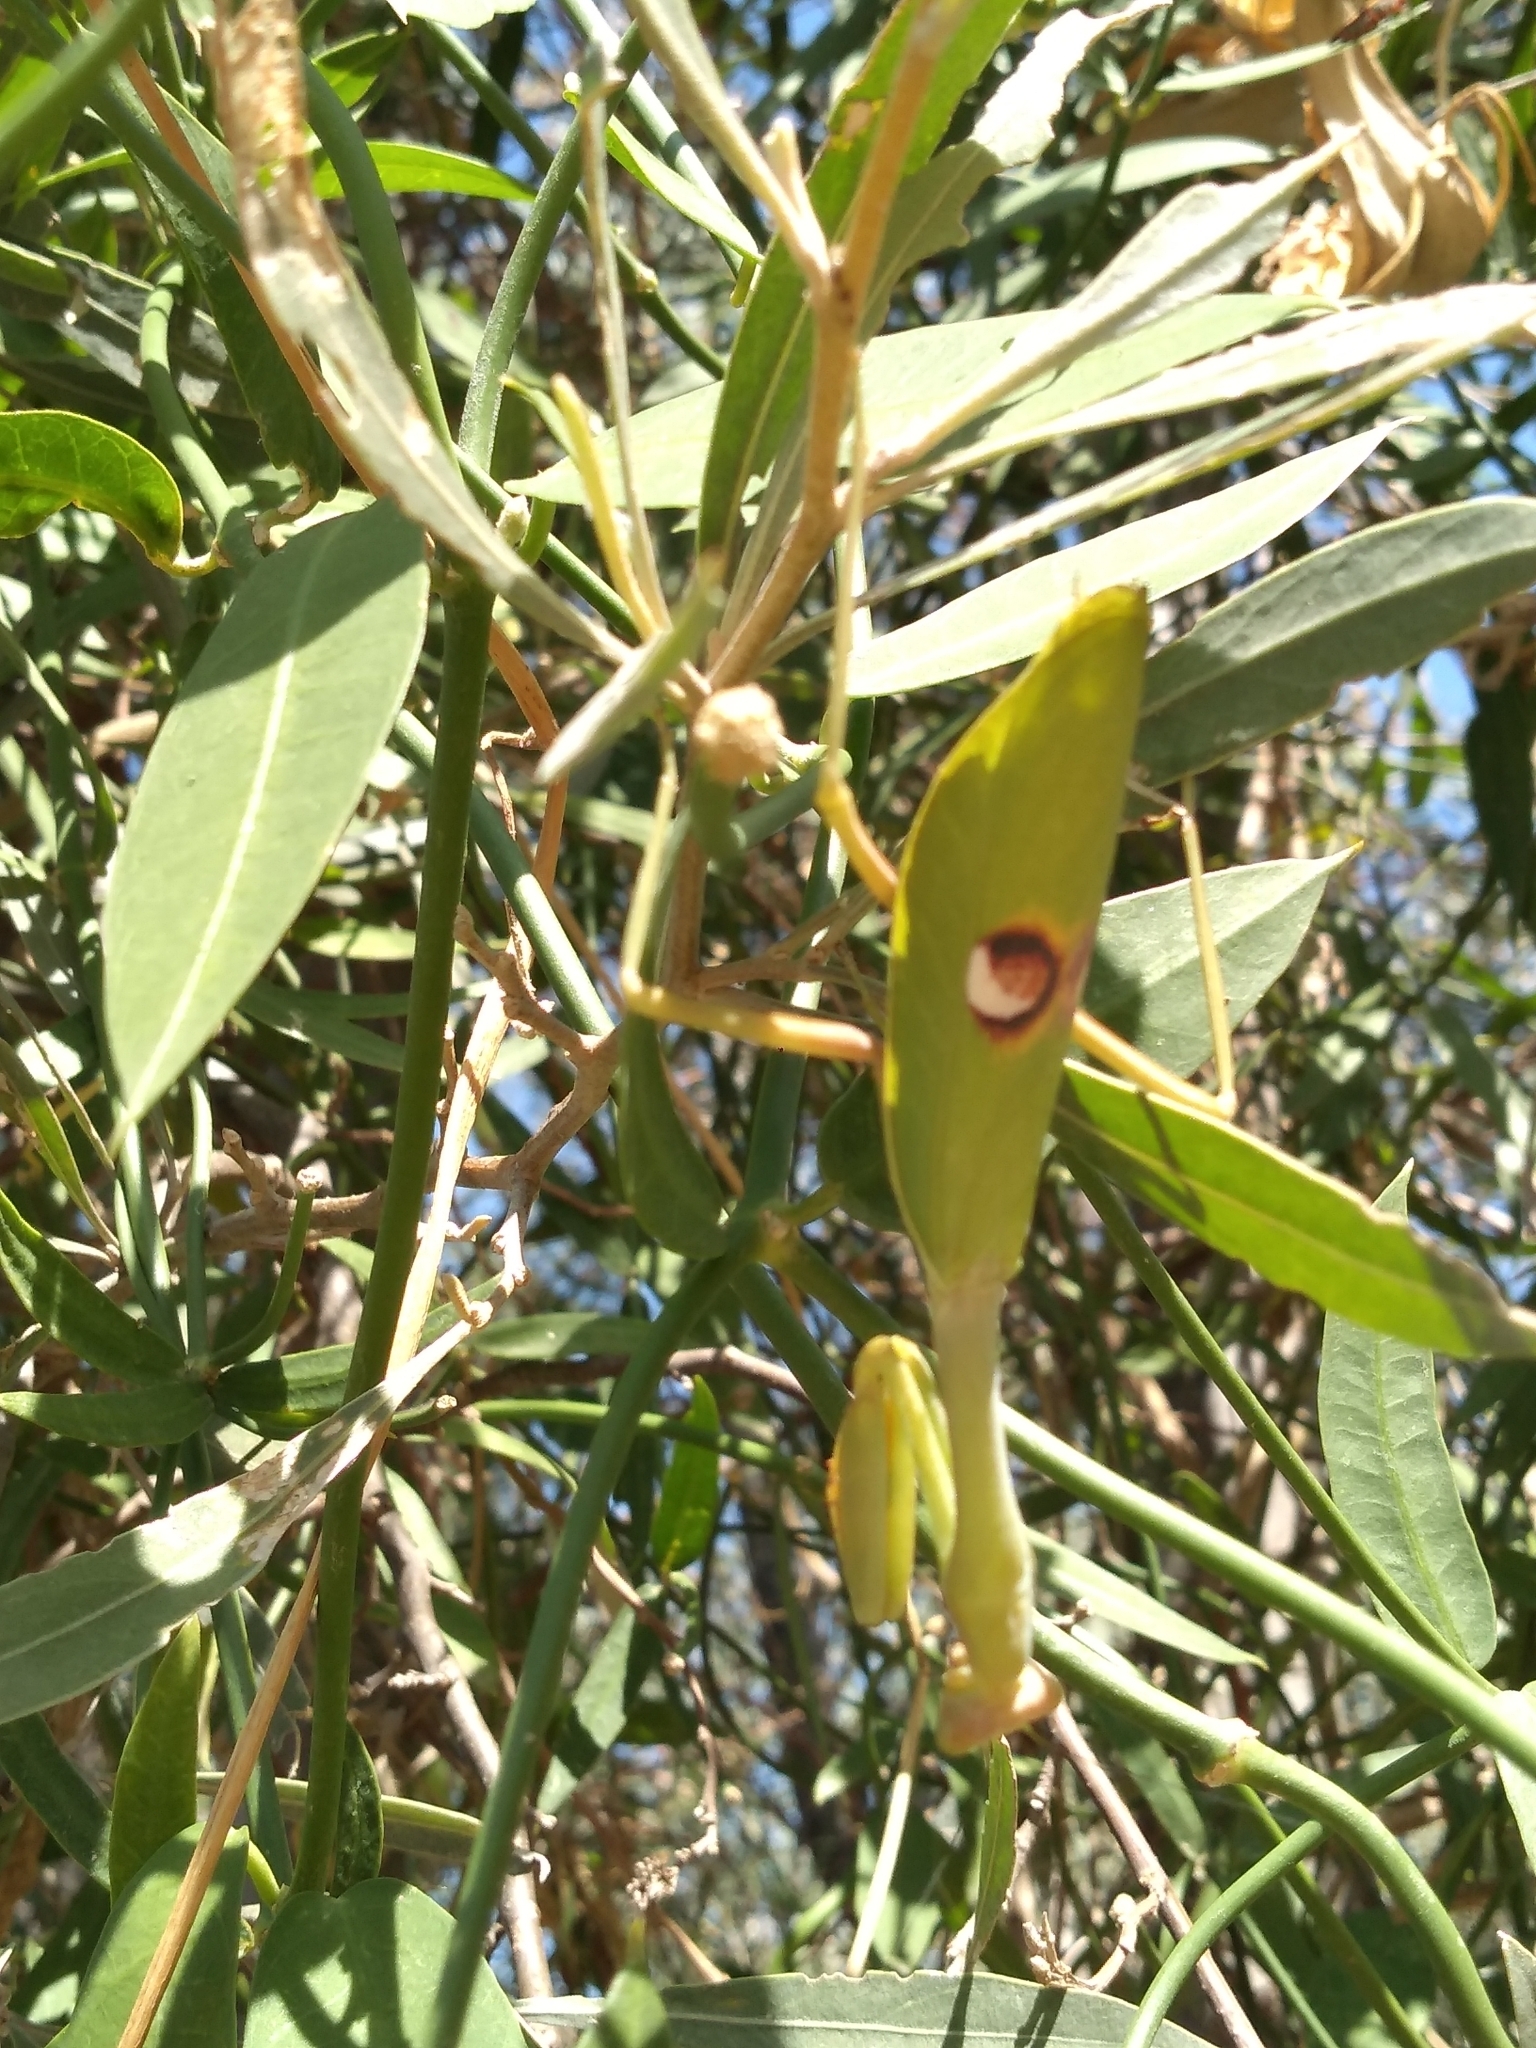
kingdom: Animalia
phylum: Arthropoda
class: Insecta
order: Mantodea
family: Mantidae
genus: Stagmatoptera
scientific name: Stagmatoptera hyaloptera
